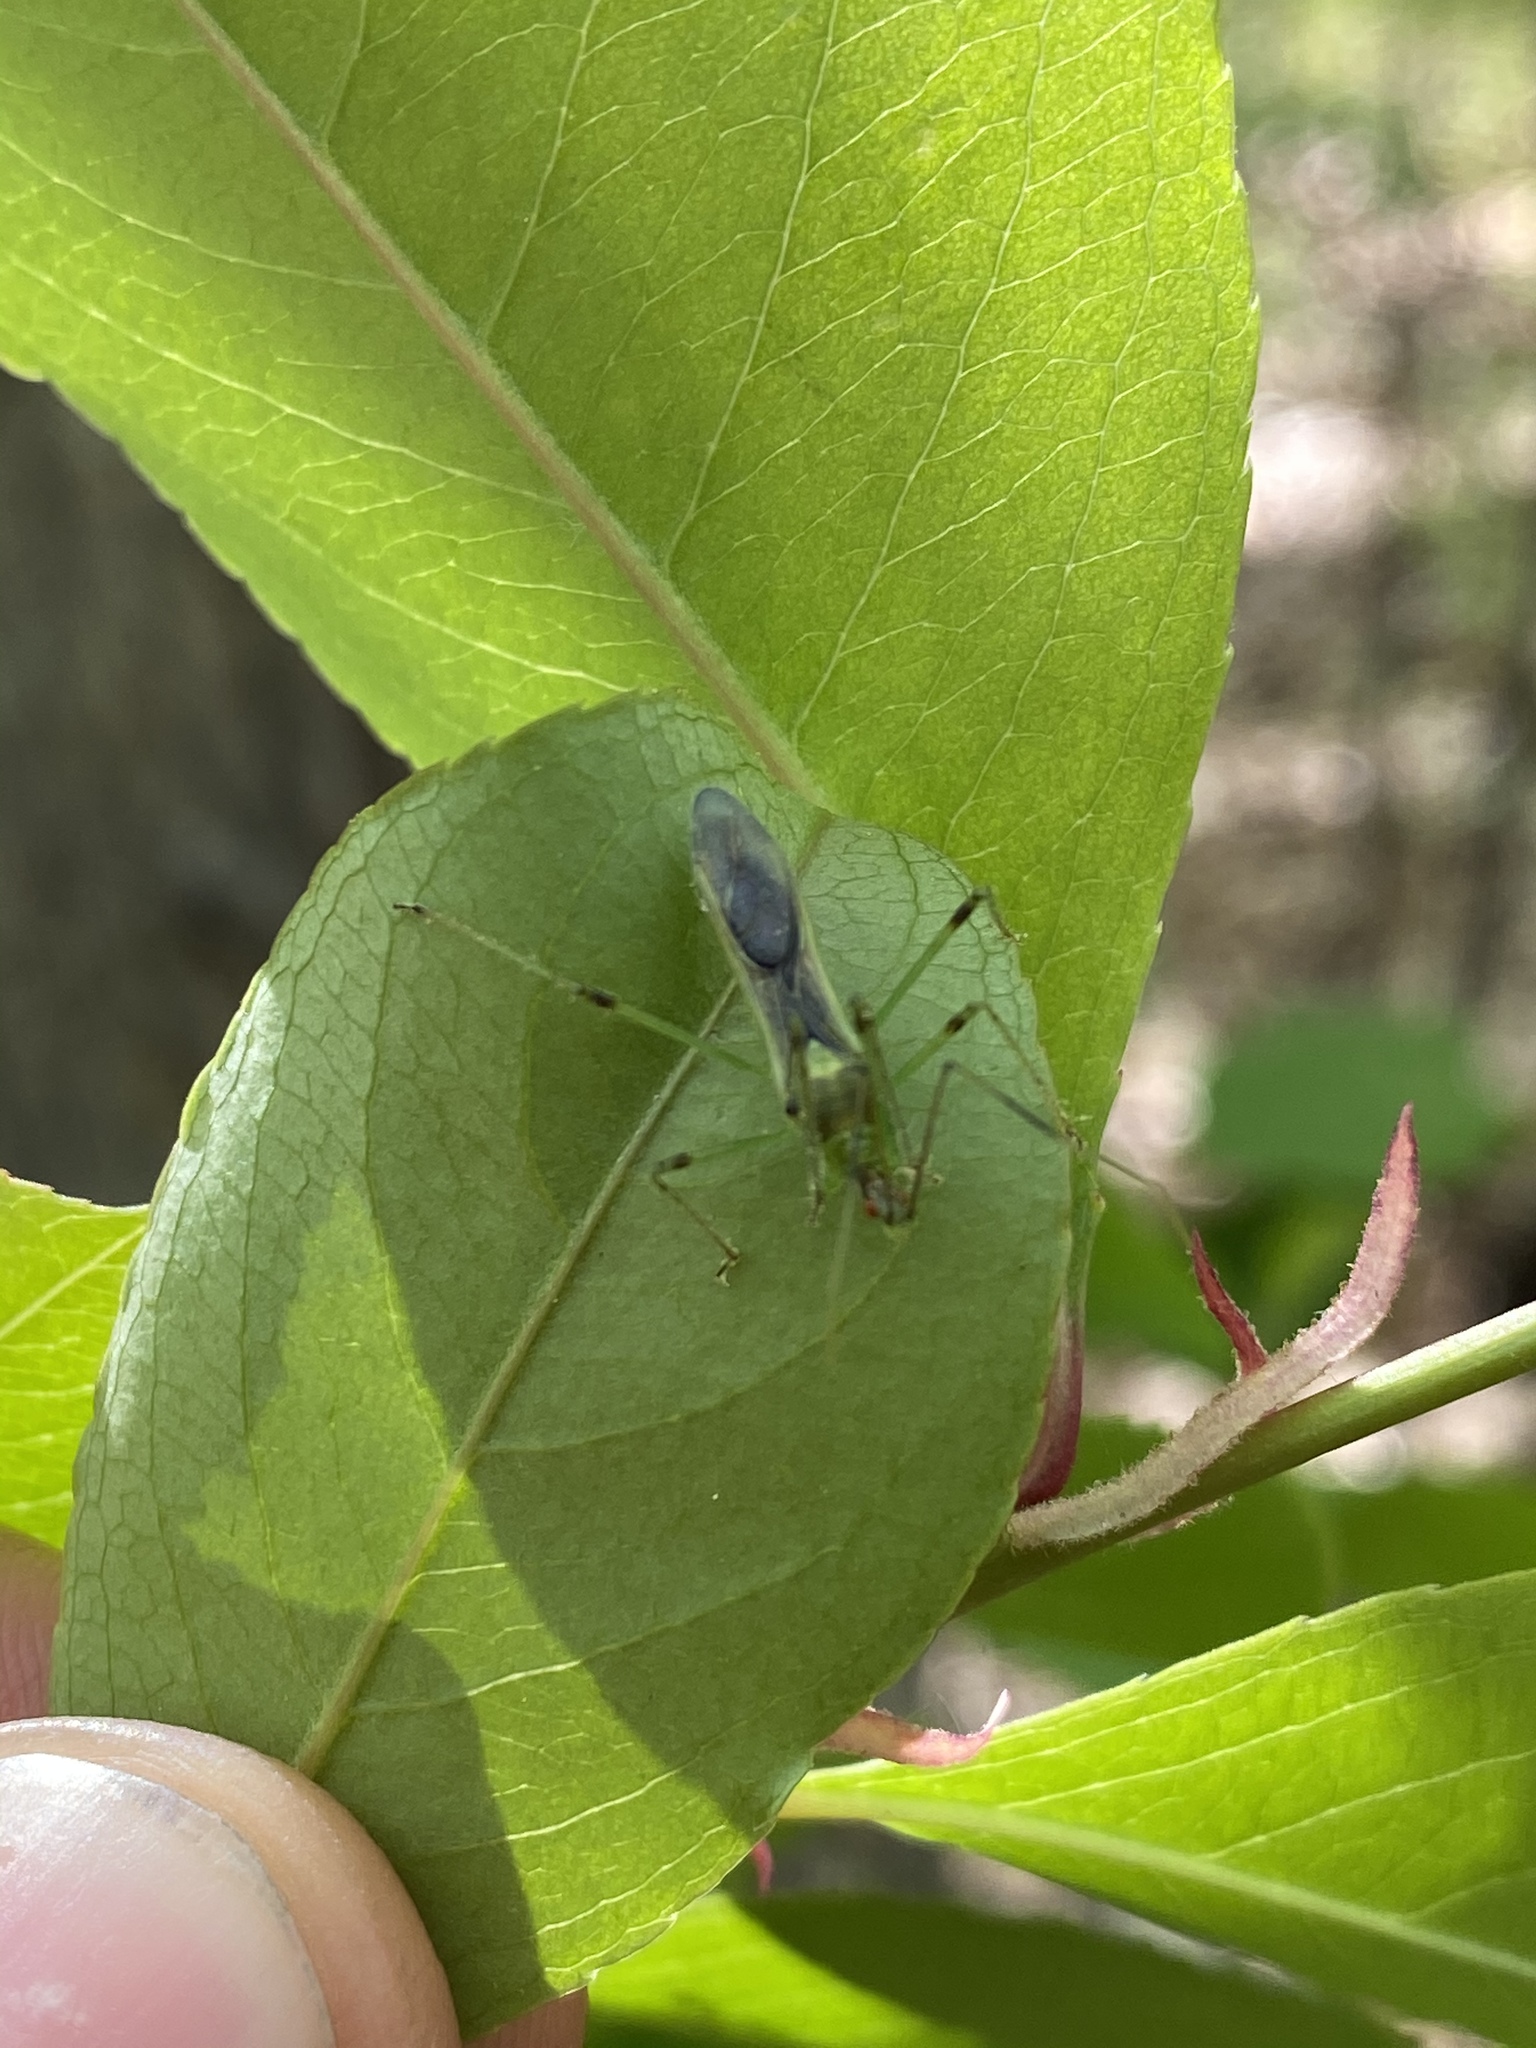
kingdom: Animalia
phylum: Arthropoda
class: Insecta
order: Hemiptera
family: Reduviidae
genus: Zelus
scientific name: Zelus luridus
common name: Pale green assassin bug
